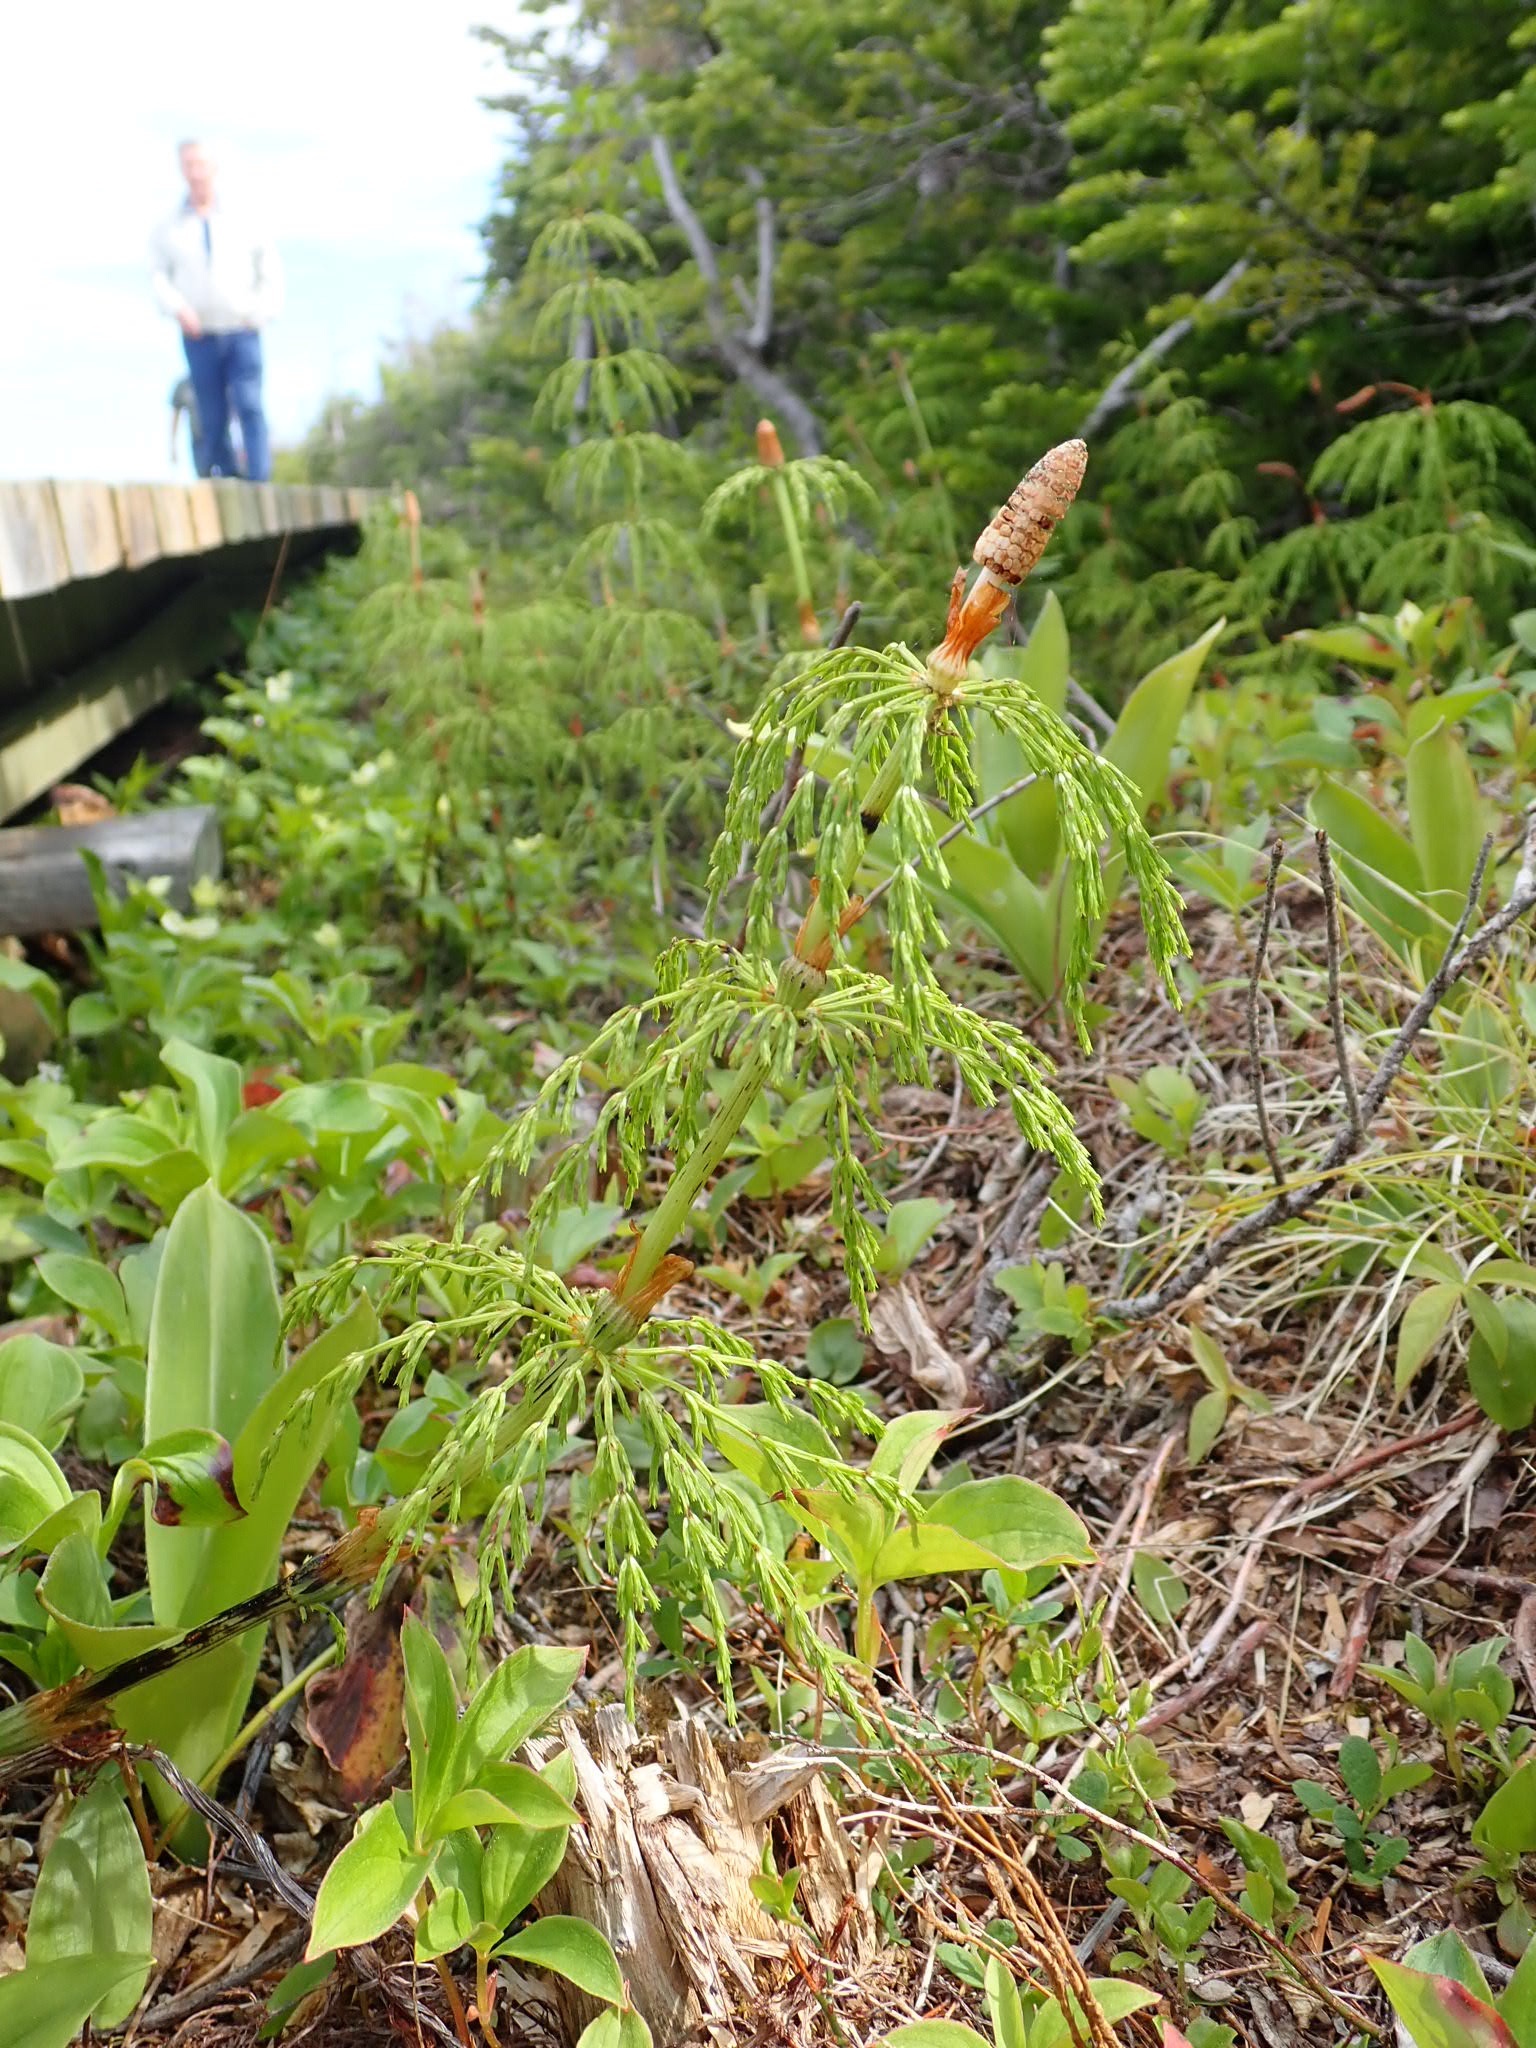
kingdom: Plantae
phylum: Tracheophyta
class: Polypodiopsida
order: Equisetales
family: Equisetaceae
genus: Equisetum
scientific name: Equisetum sylvaticum
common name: Wood horsetail
